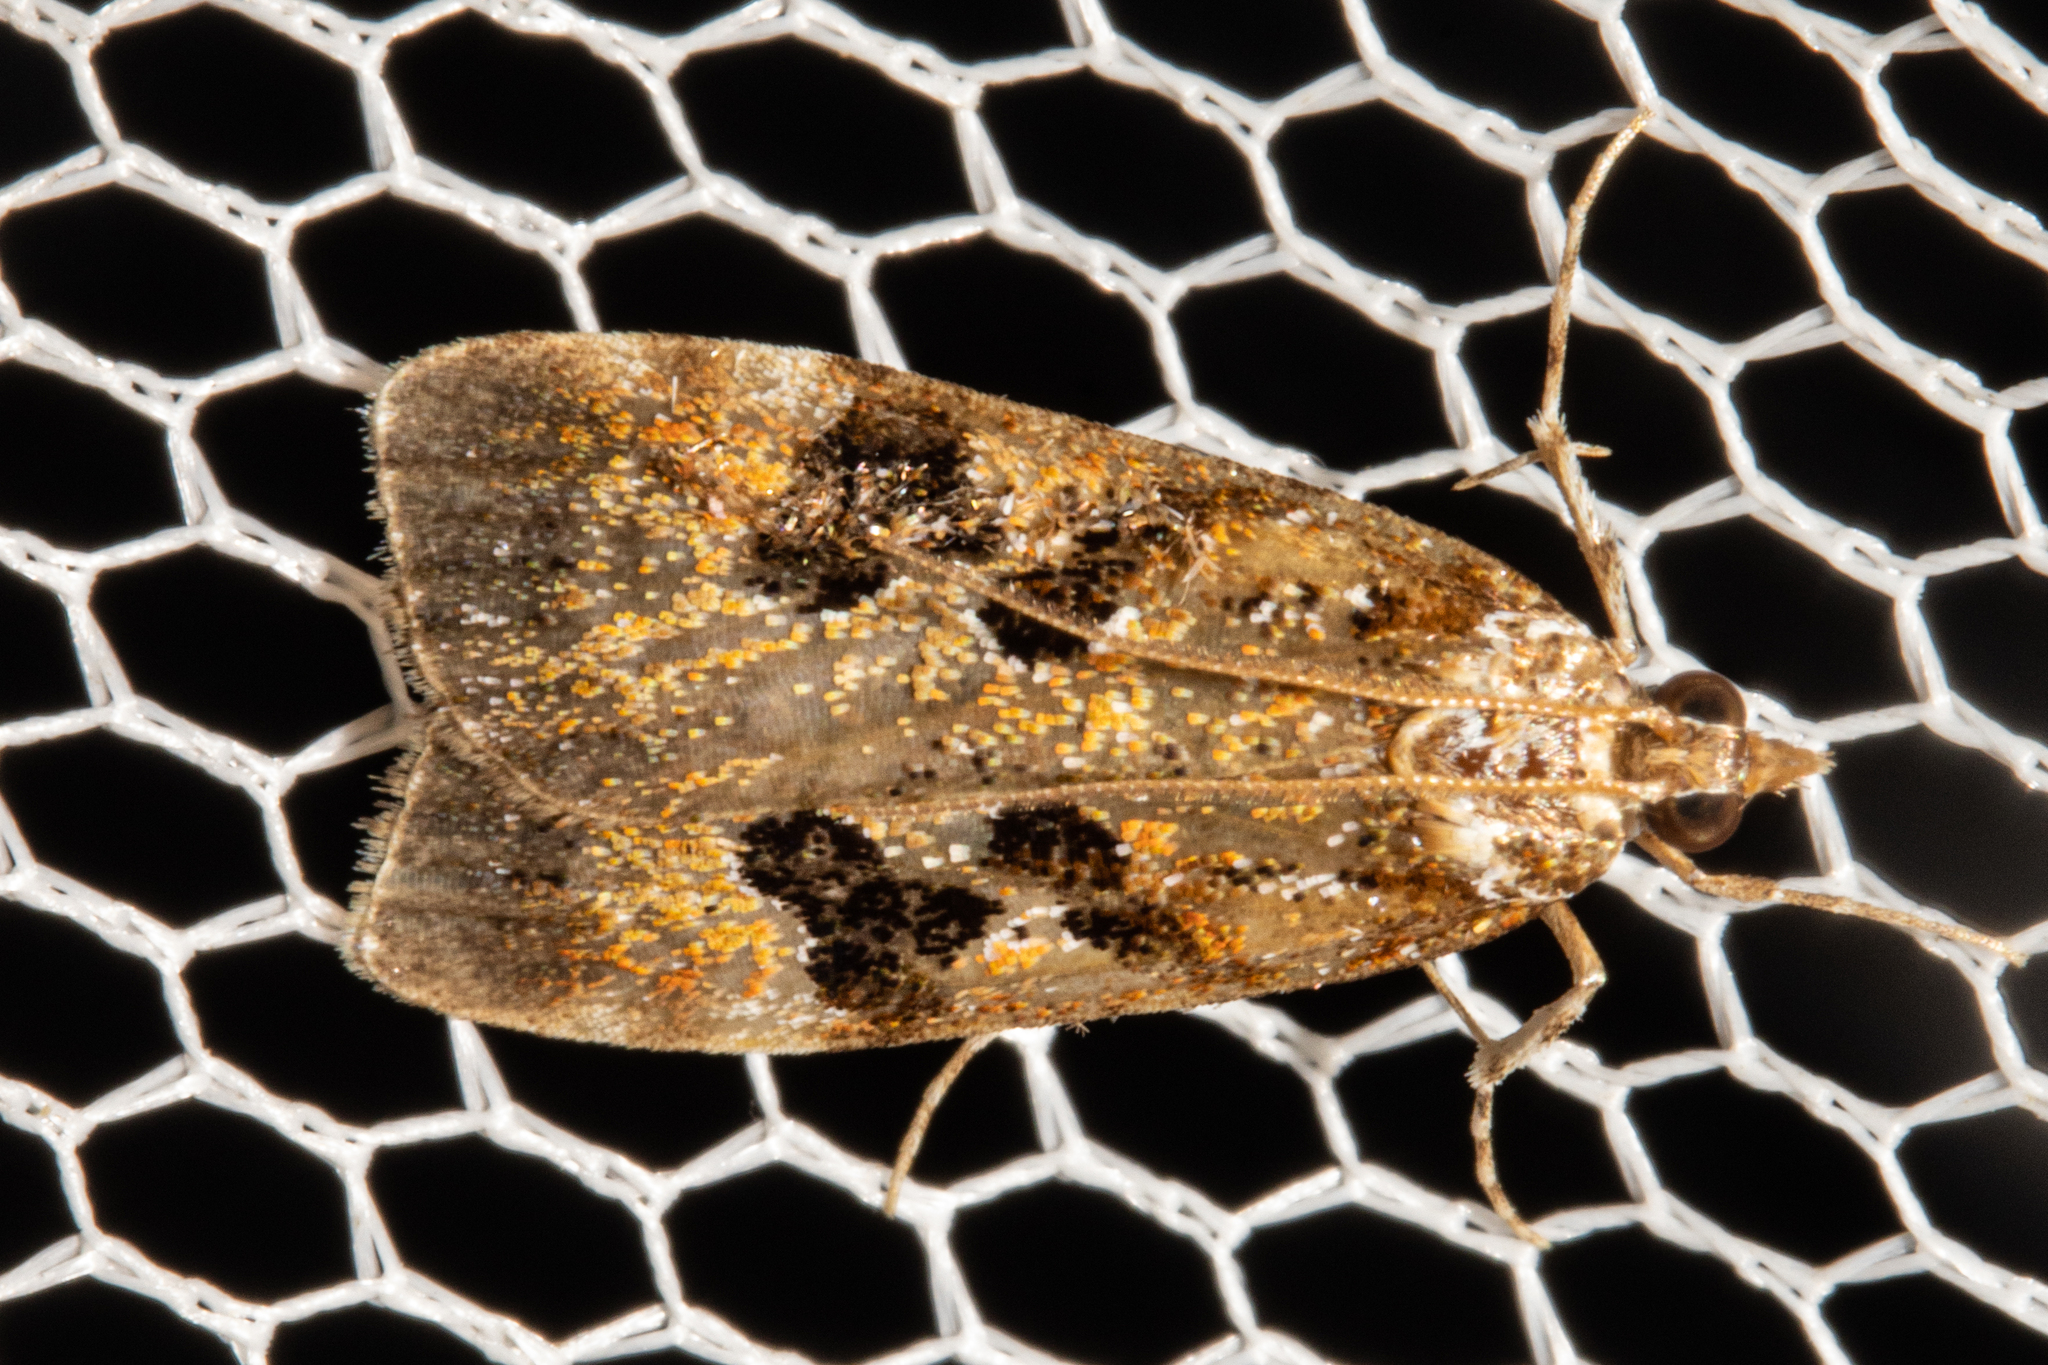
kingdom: Animalia
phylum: Arthropoda
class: Insecta
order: Lepidoptera
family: Crambidae
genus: Scoparia
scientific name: Scoparia ustimacula
